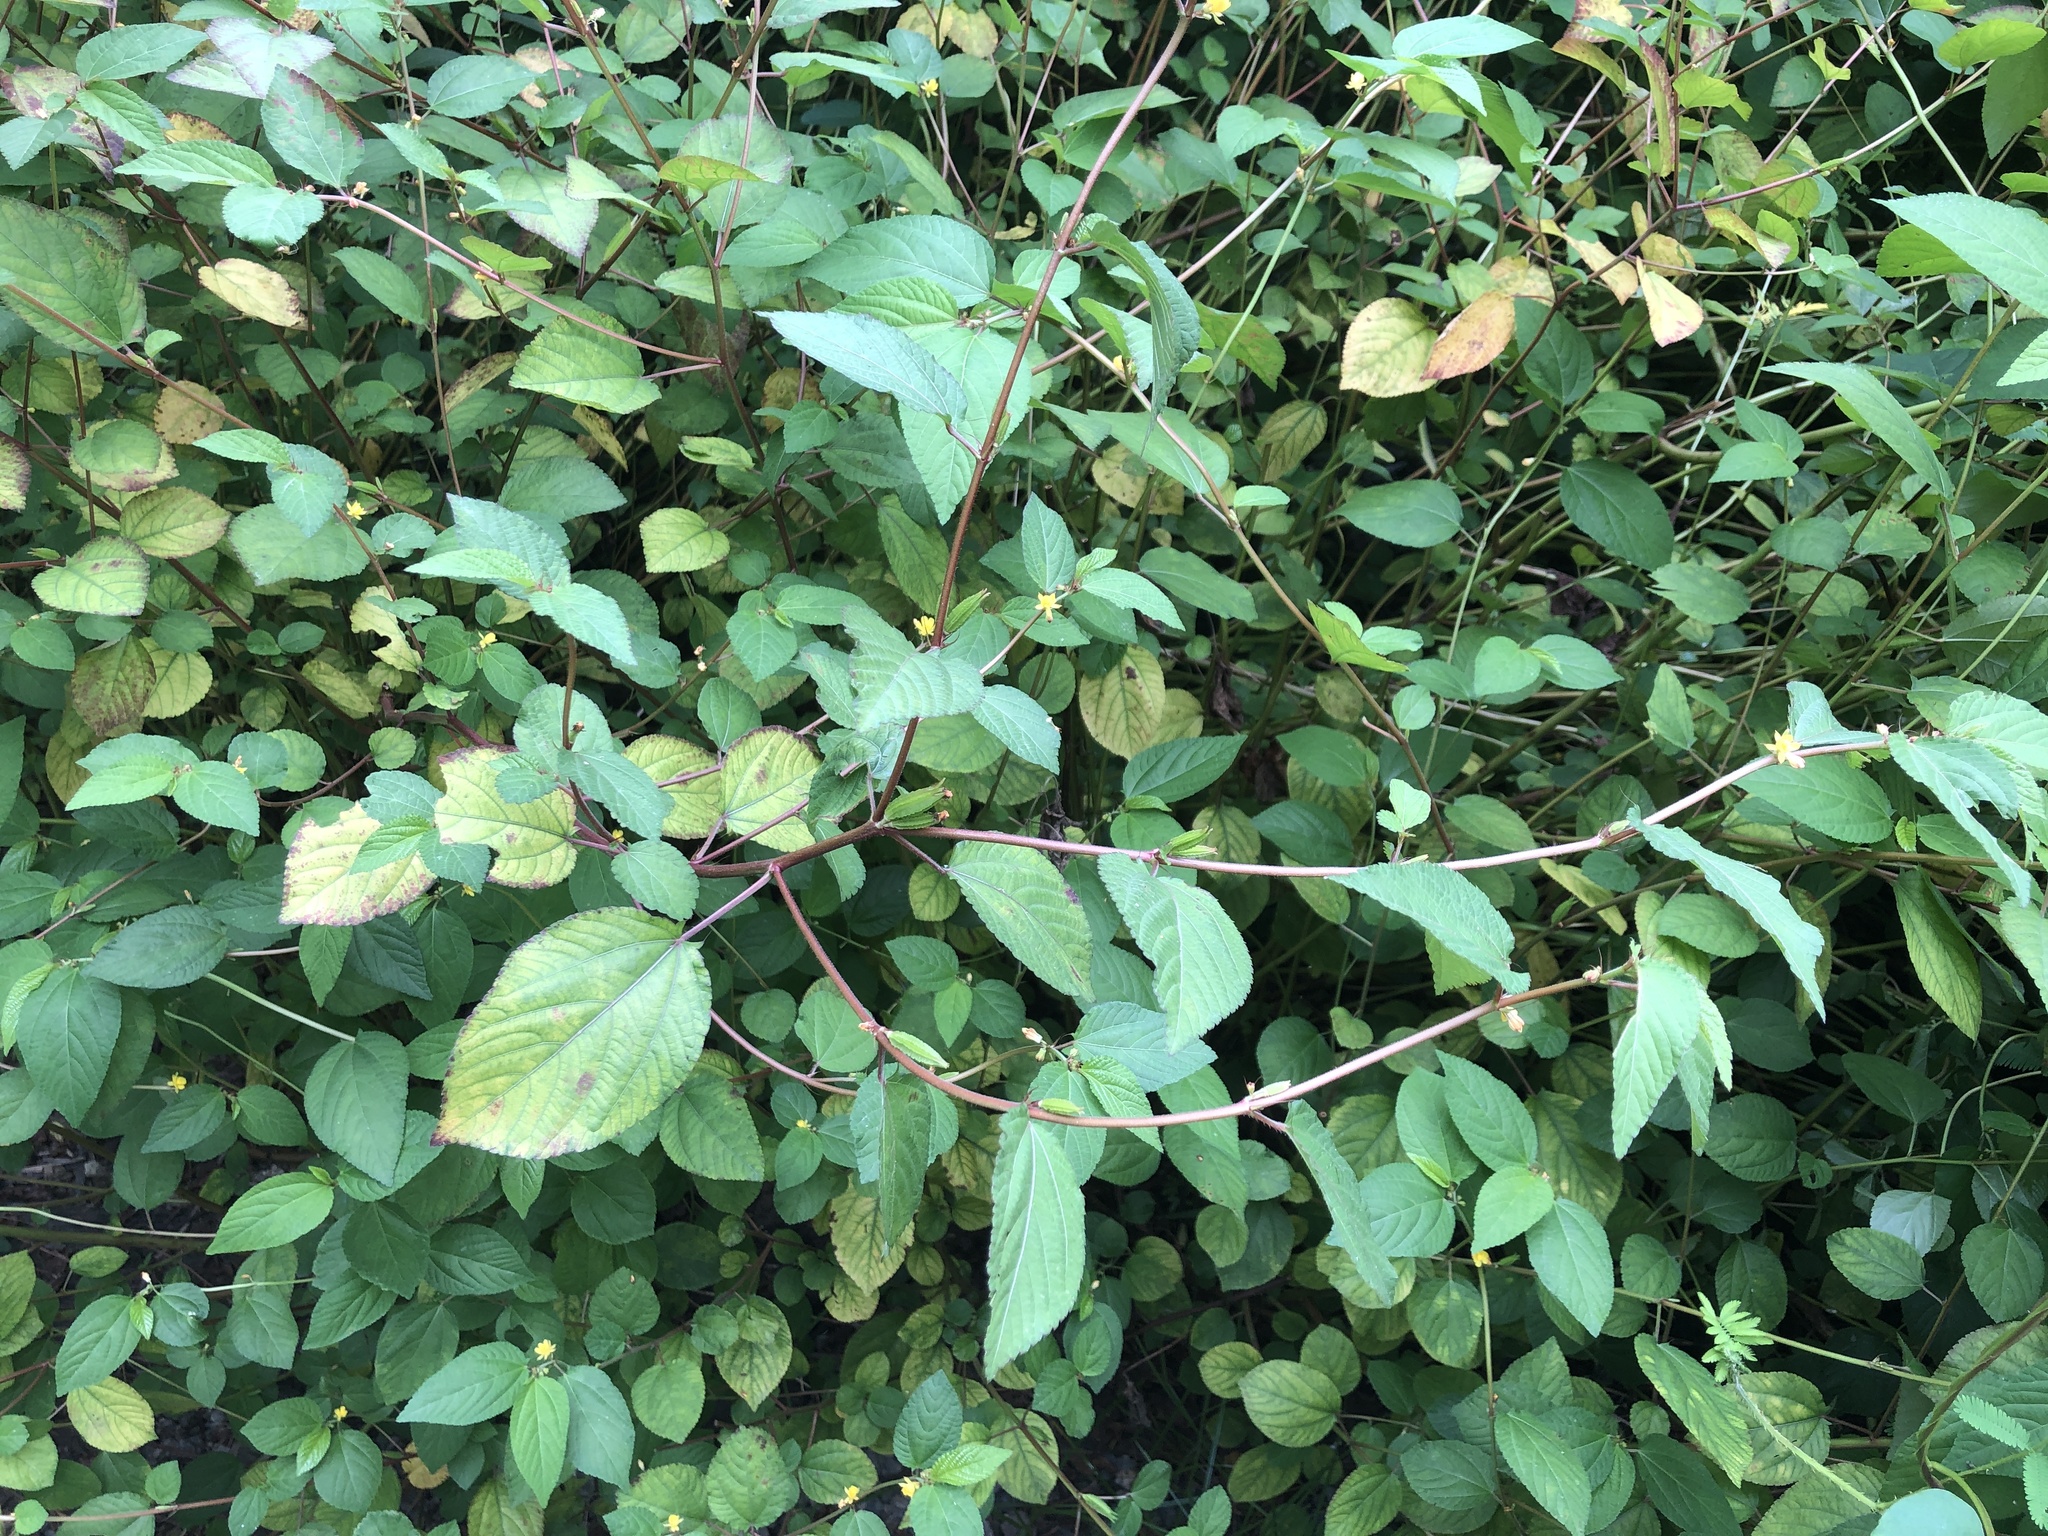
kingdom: Plantae
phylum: Tracheophyta
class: Magnoliopsida
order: Malvales
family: Malvaceae
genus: Corchorus
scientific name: Corchorus aestuans
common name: Jute
